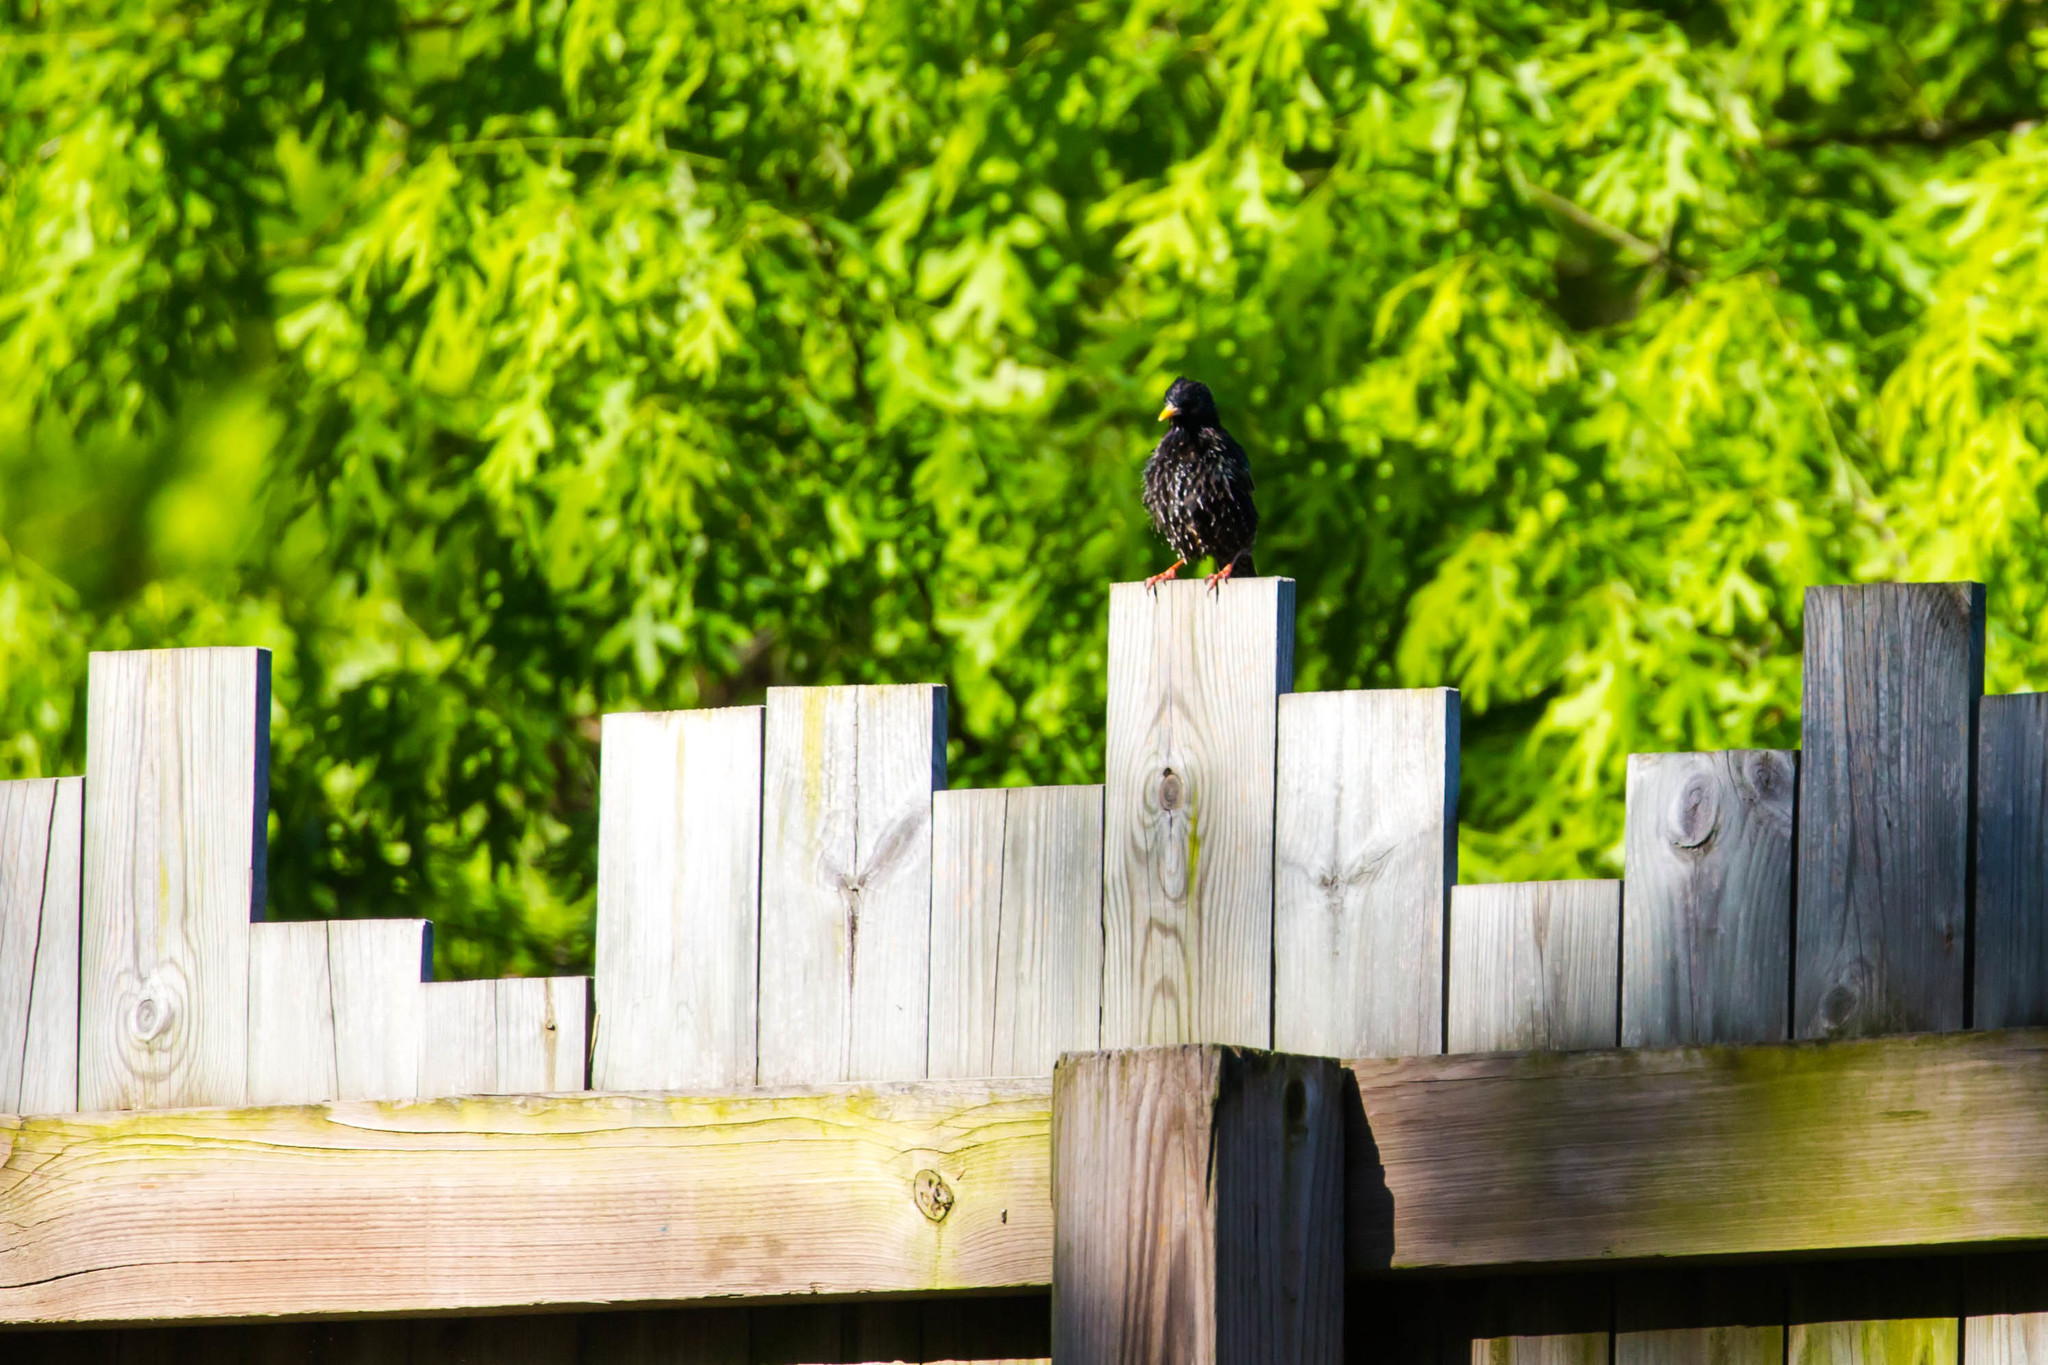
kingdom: Animalia
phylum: Chordata
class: Aves
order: Passeriformes
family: Sturnidae
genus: Sturnus
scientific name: Sturnus vulgaris
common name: Common starling
